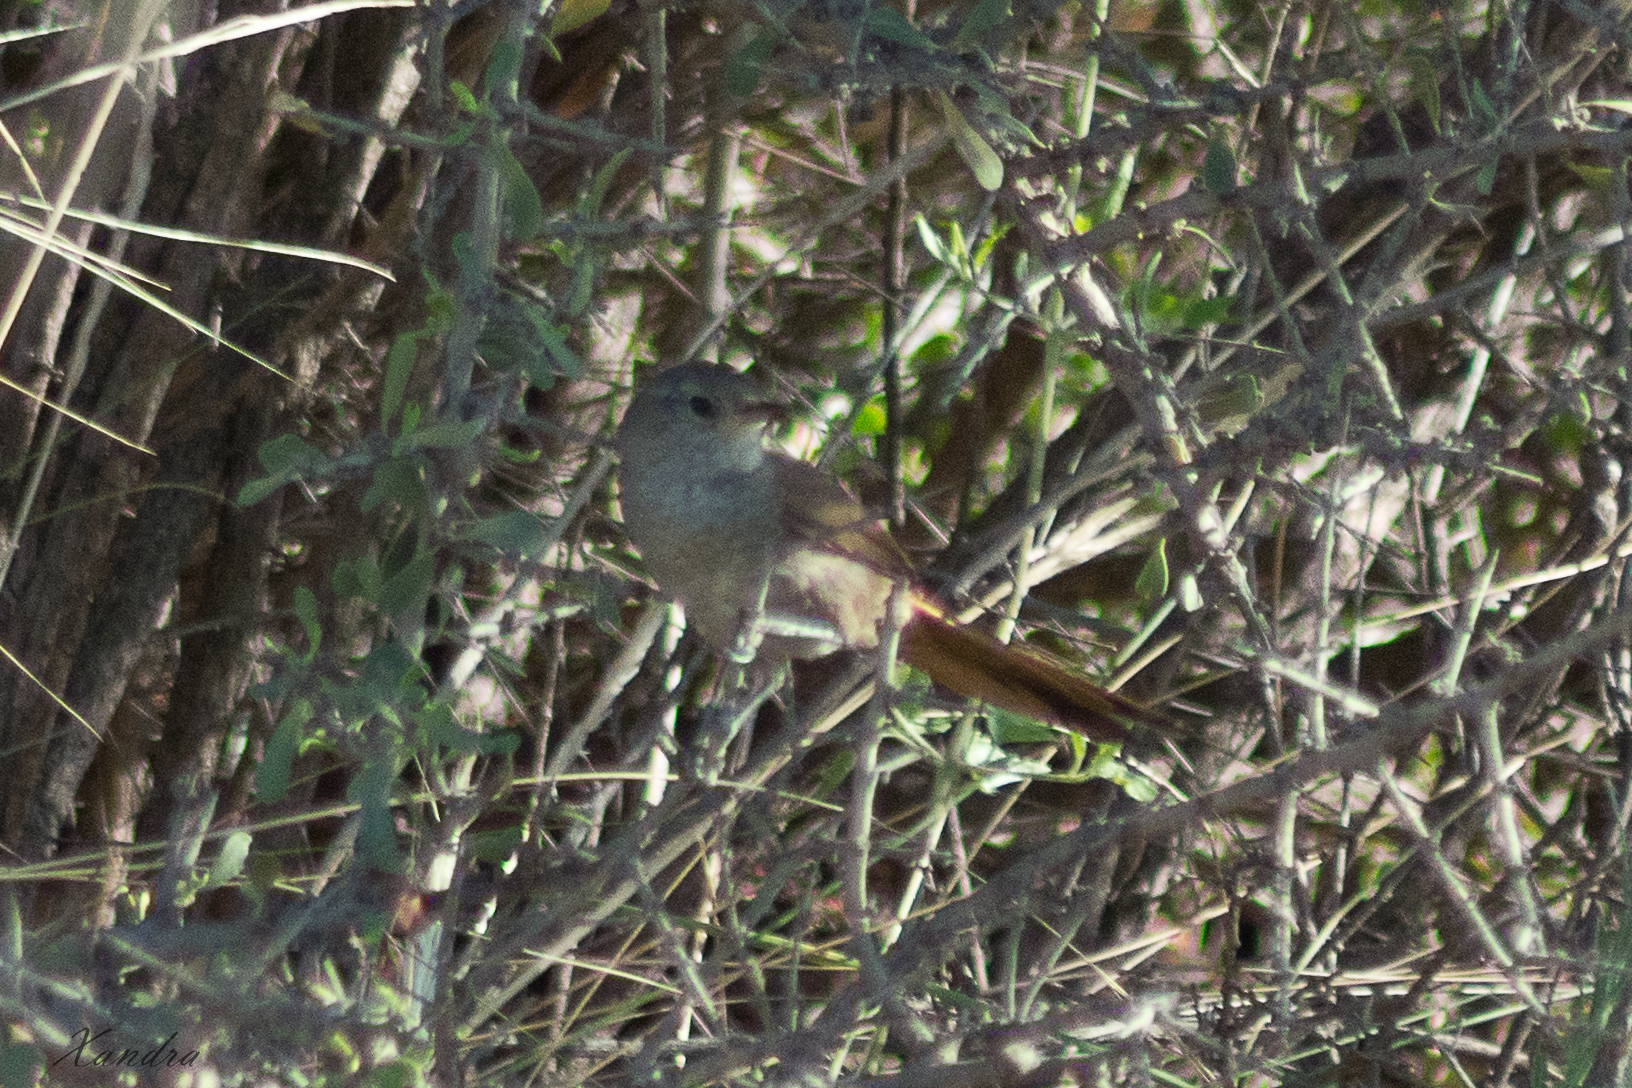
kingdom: Animalia
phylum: Chordata
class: Aves
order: Passeriformes
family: Furnariidae
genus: Asthenes
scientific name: Asthenes pyrrholeuca
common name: Sharp-billed canastero
